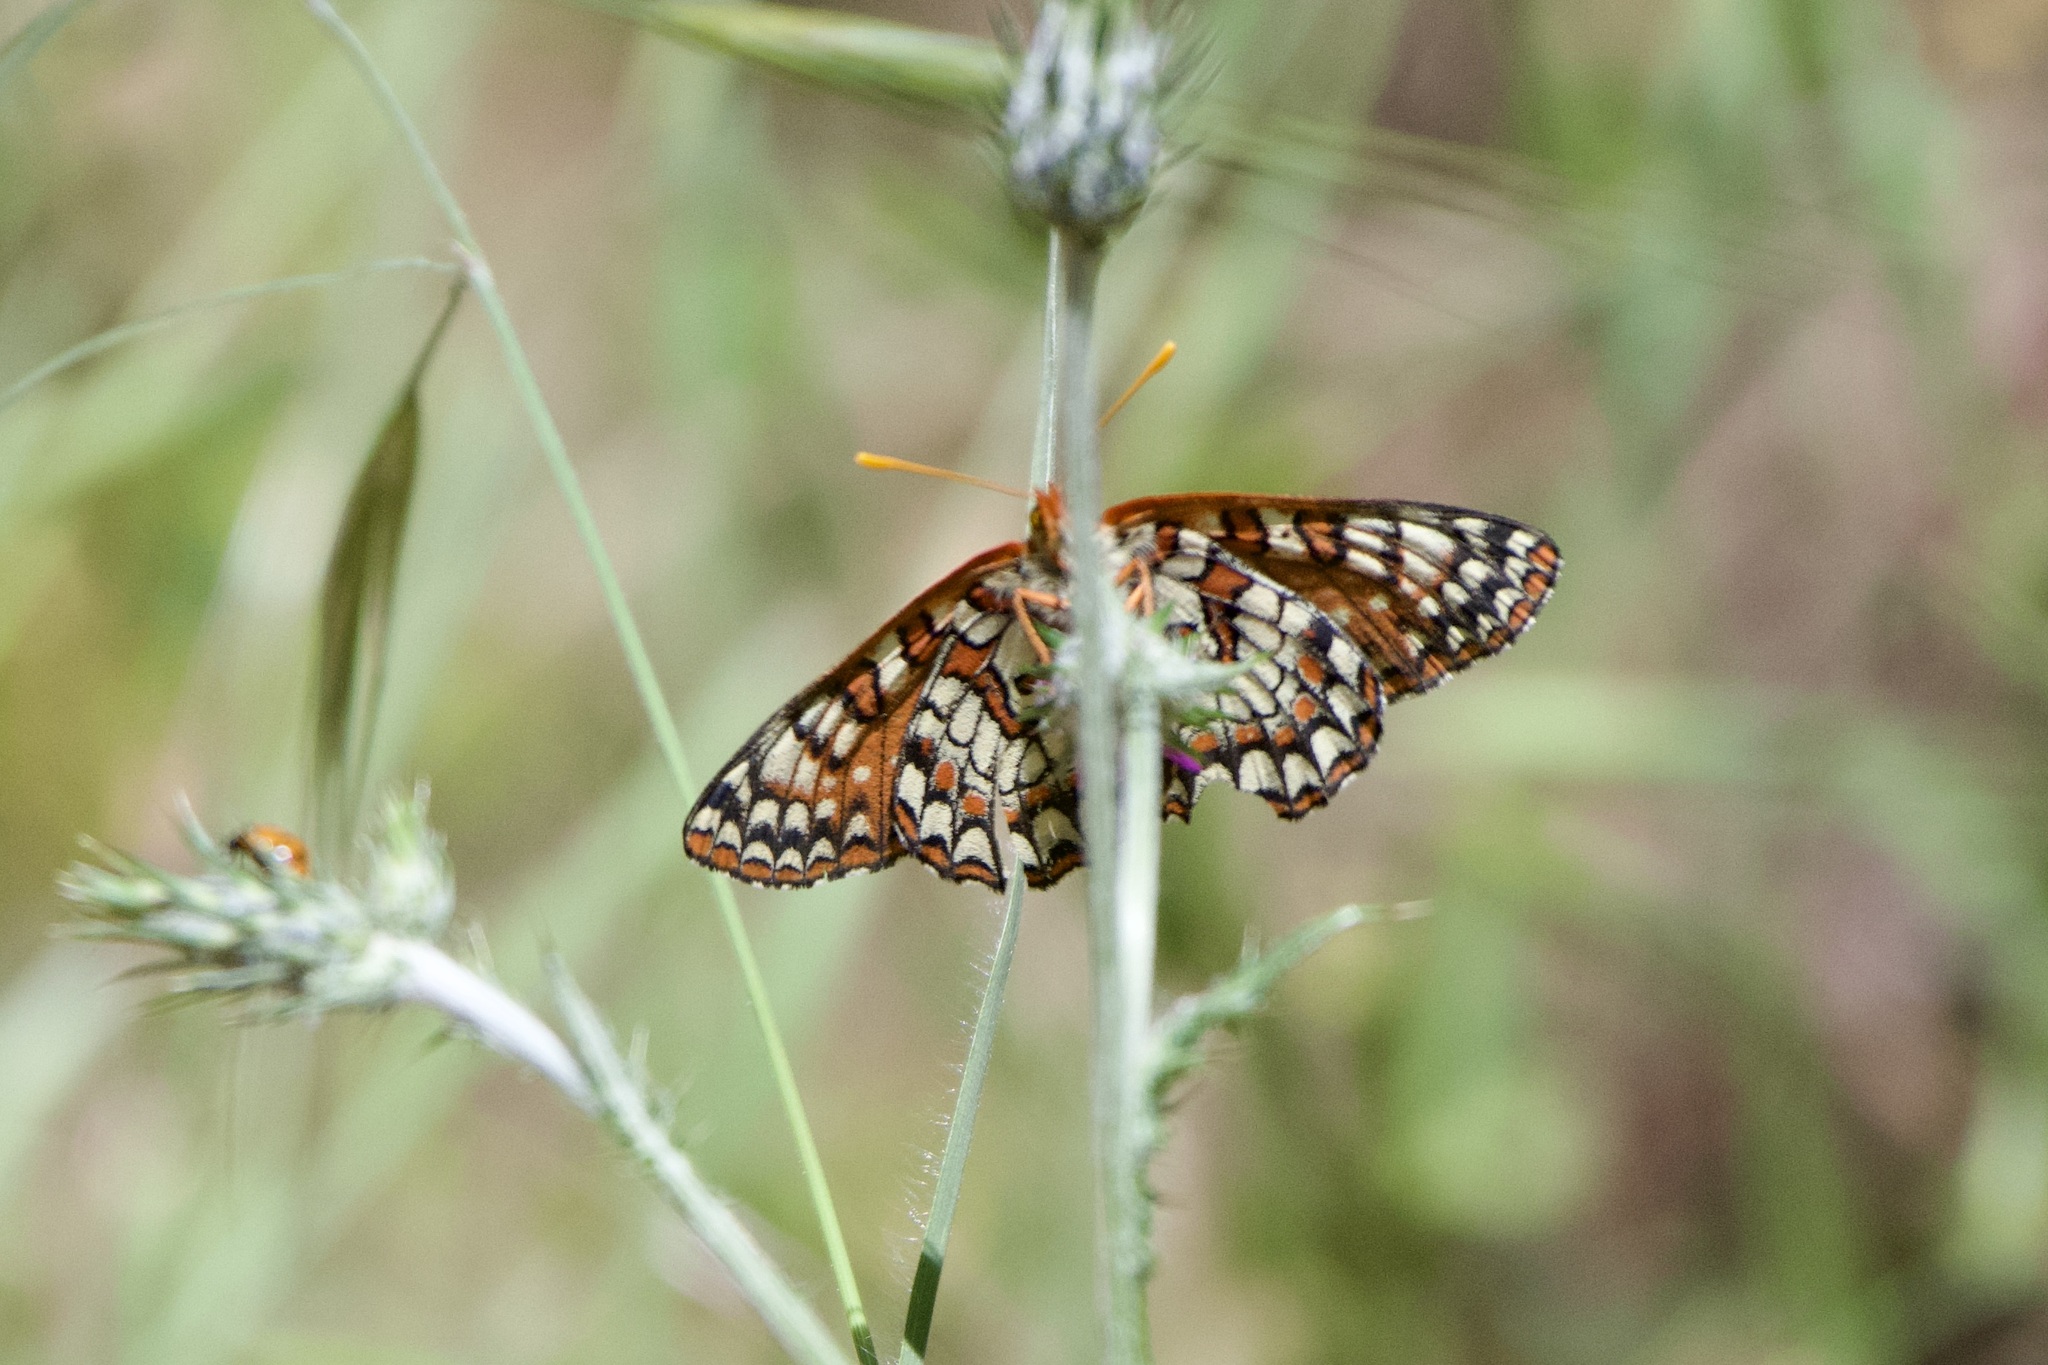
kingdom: Animalia
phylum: Arthropoda
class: Insecta
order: Lepidoptera
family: Nymphalidae
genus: Occidryas
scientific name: Occidryas chalcedona
